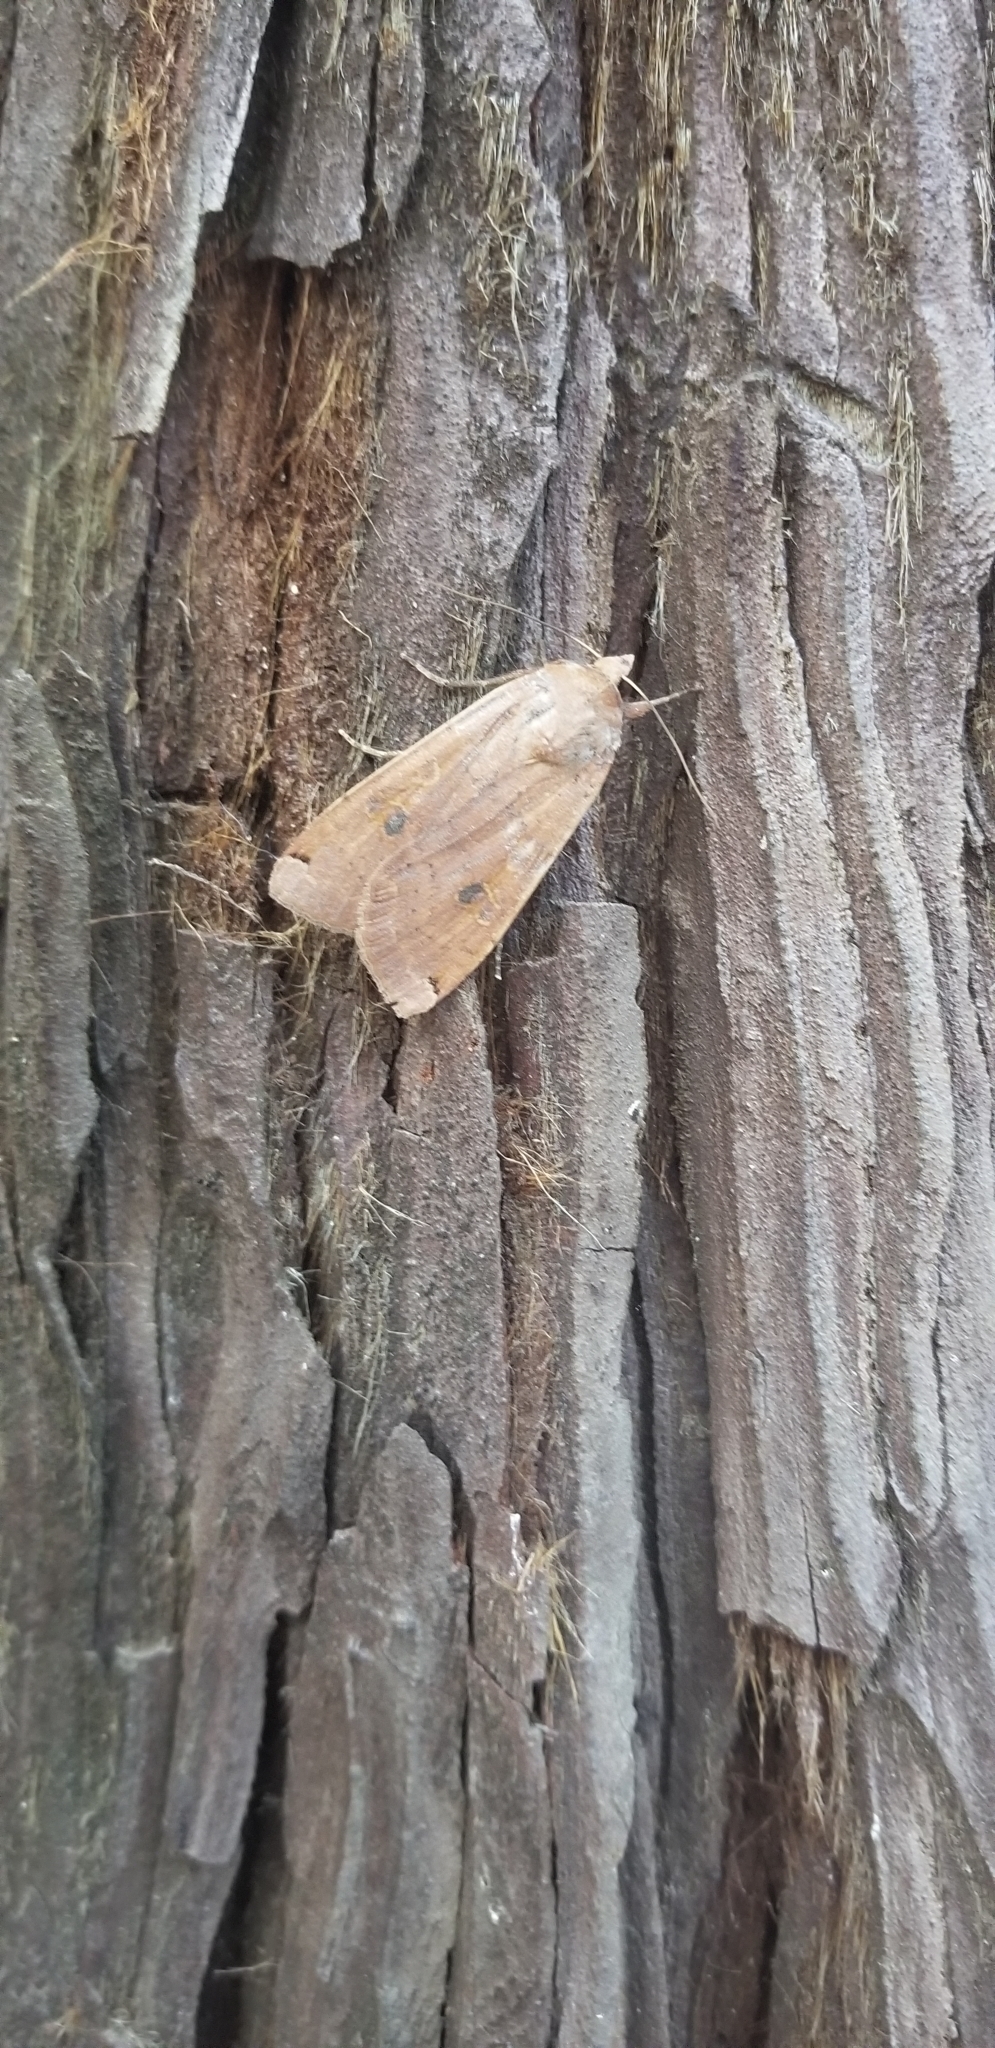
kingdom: Animalia
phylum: Arthropoda
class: Insecta
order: Lepidoptera
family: Noctuidae
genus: Noctua
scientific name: Noctua pronuba
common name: Large yellow underwing
